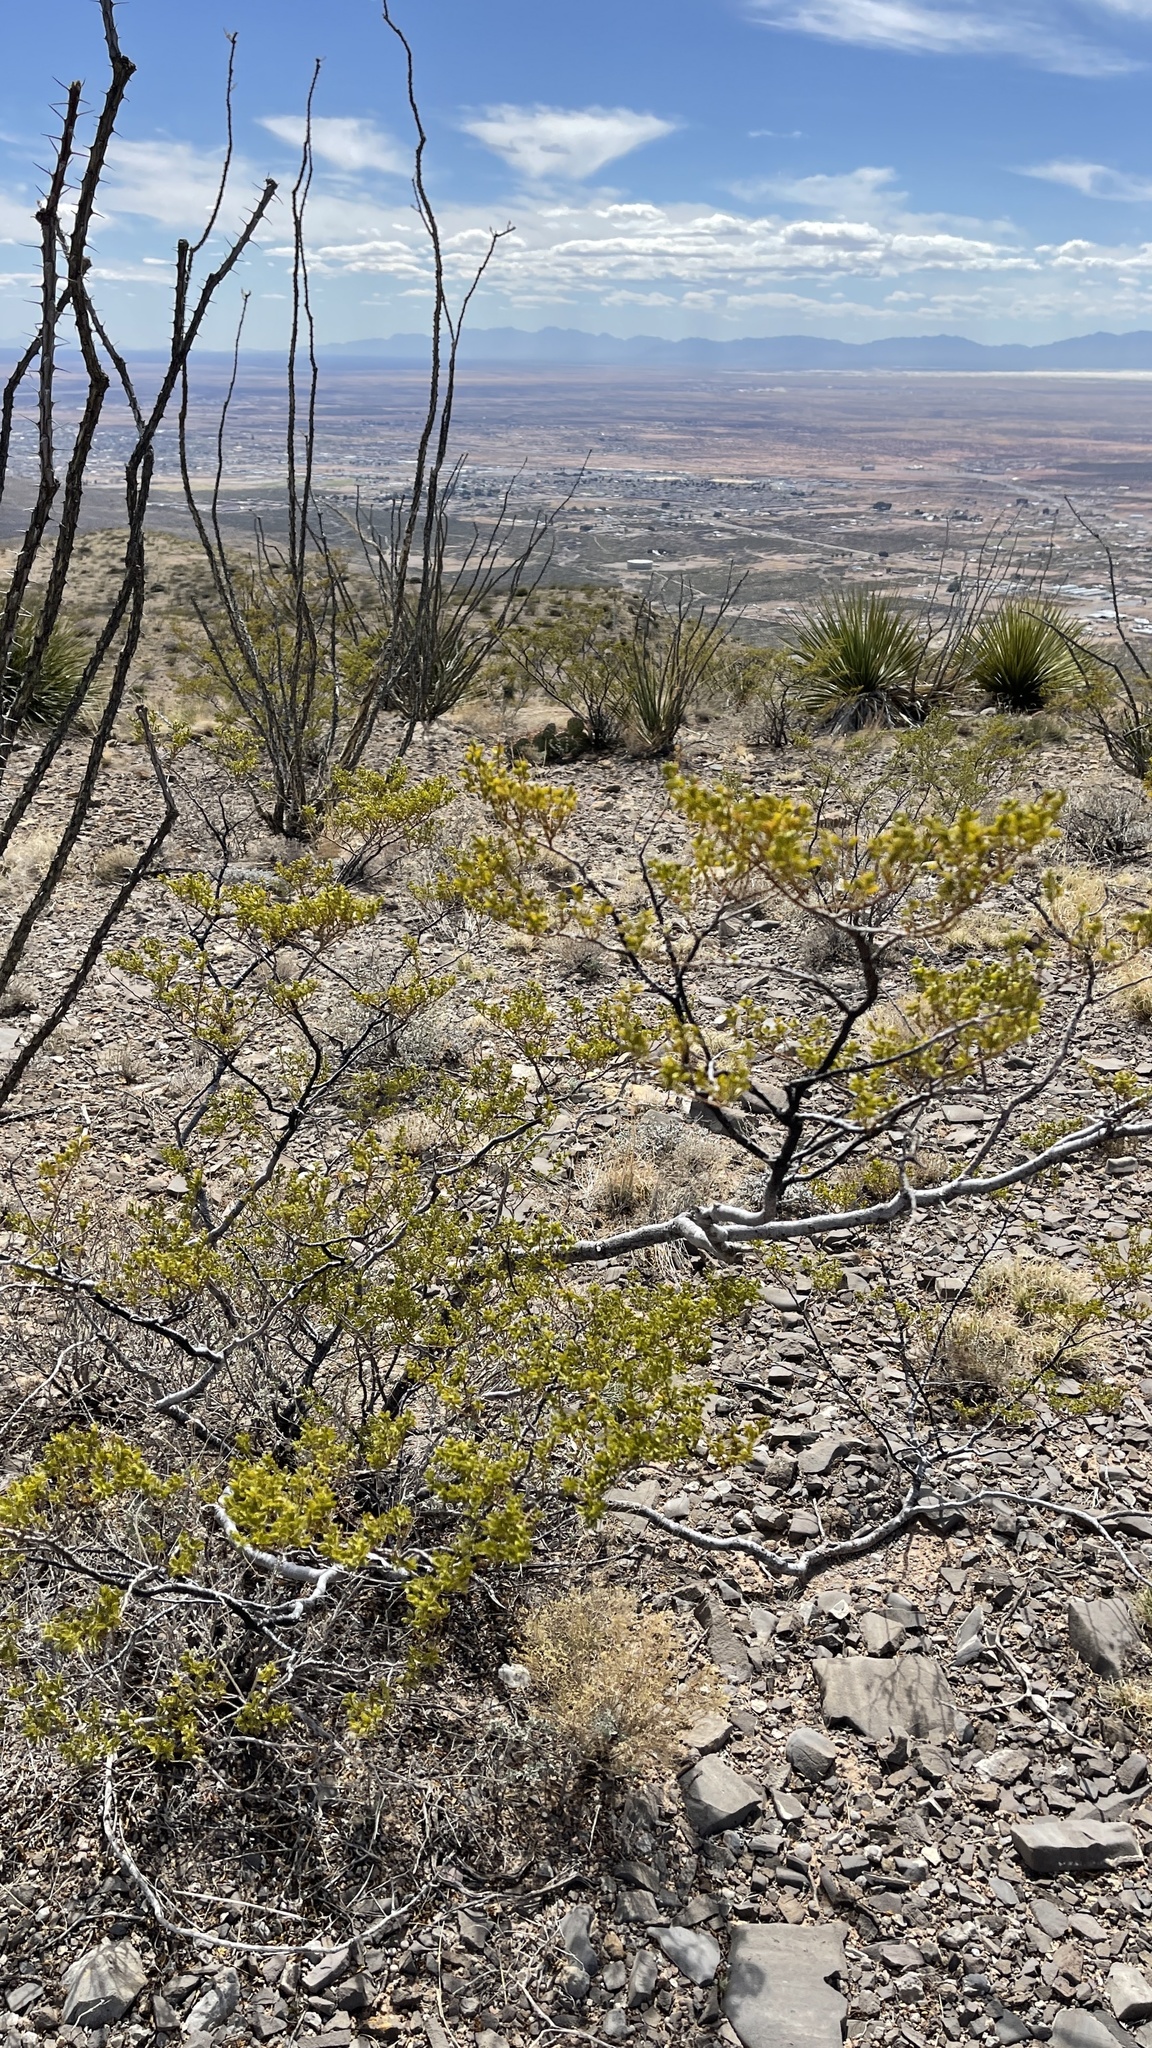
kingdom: Plantae
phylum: Tracheophyta
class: Magnoliopsida
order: Zygophyllales
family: Zygophyllaceae
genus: Larrea
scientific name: Larrea tridentata
